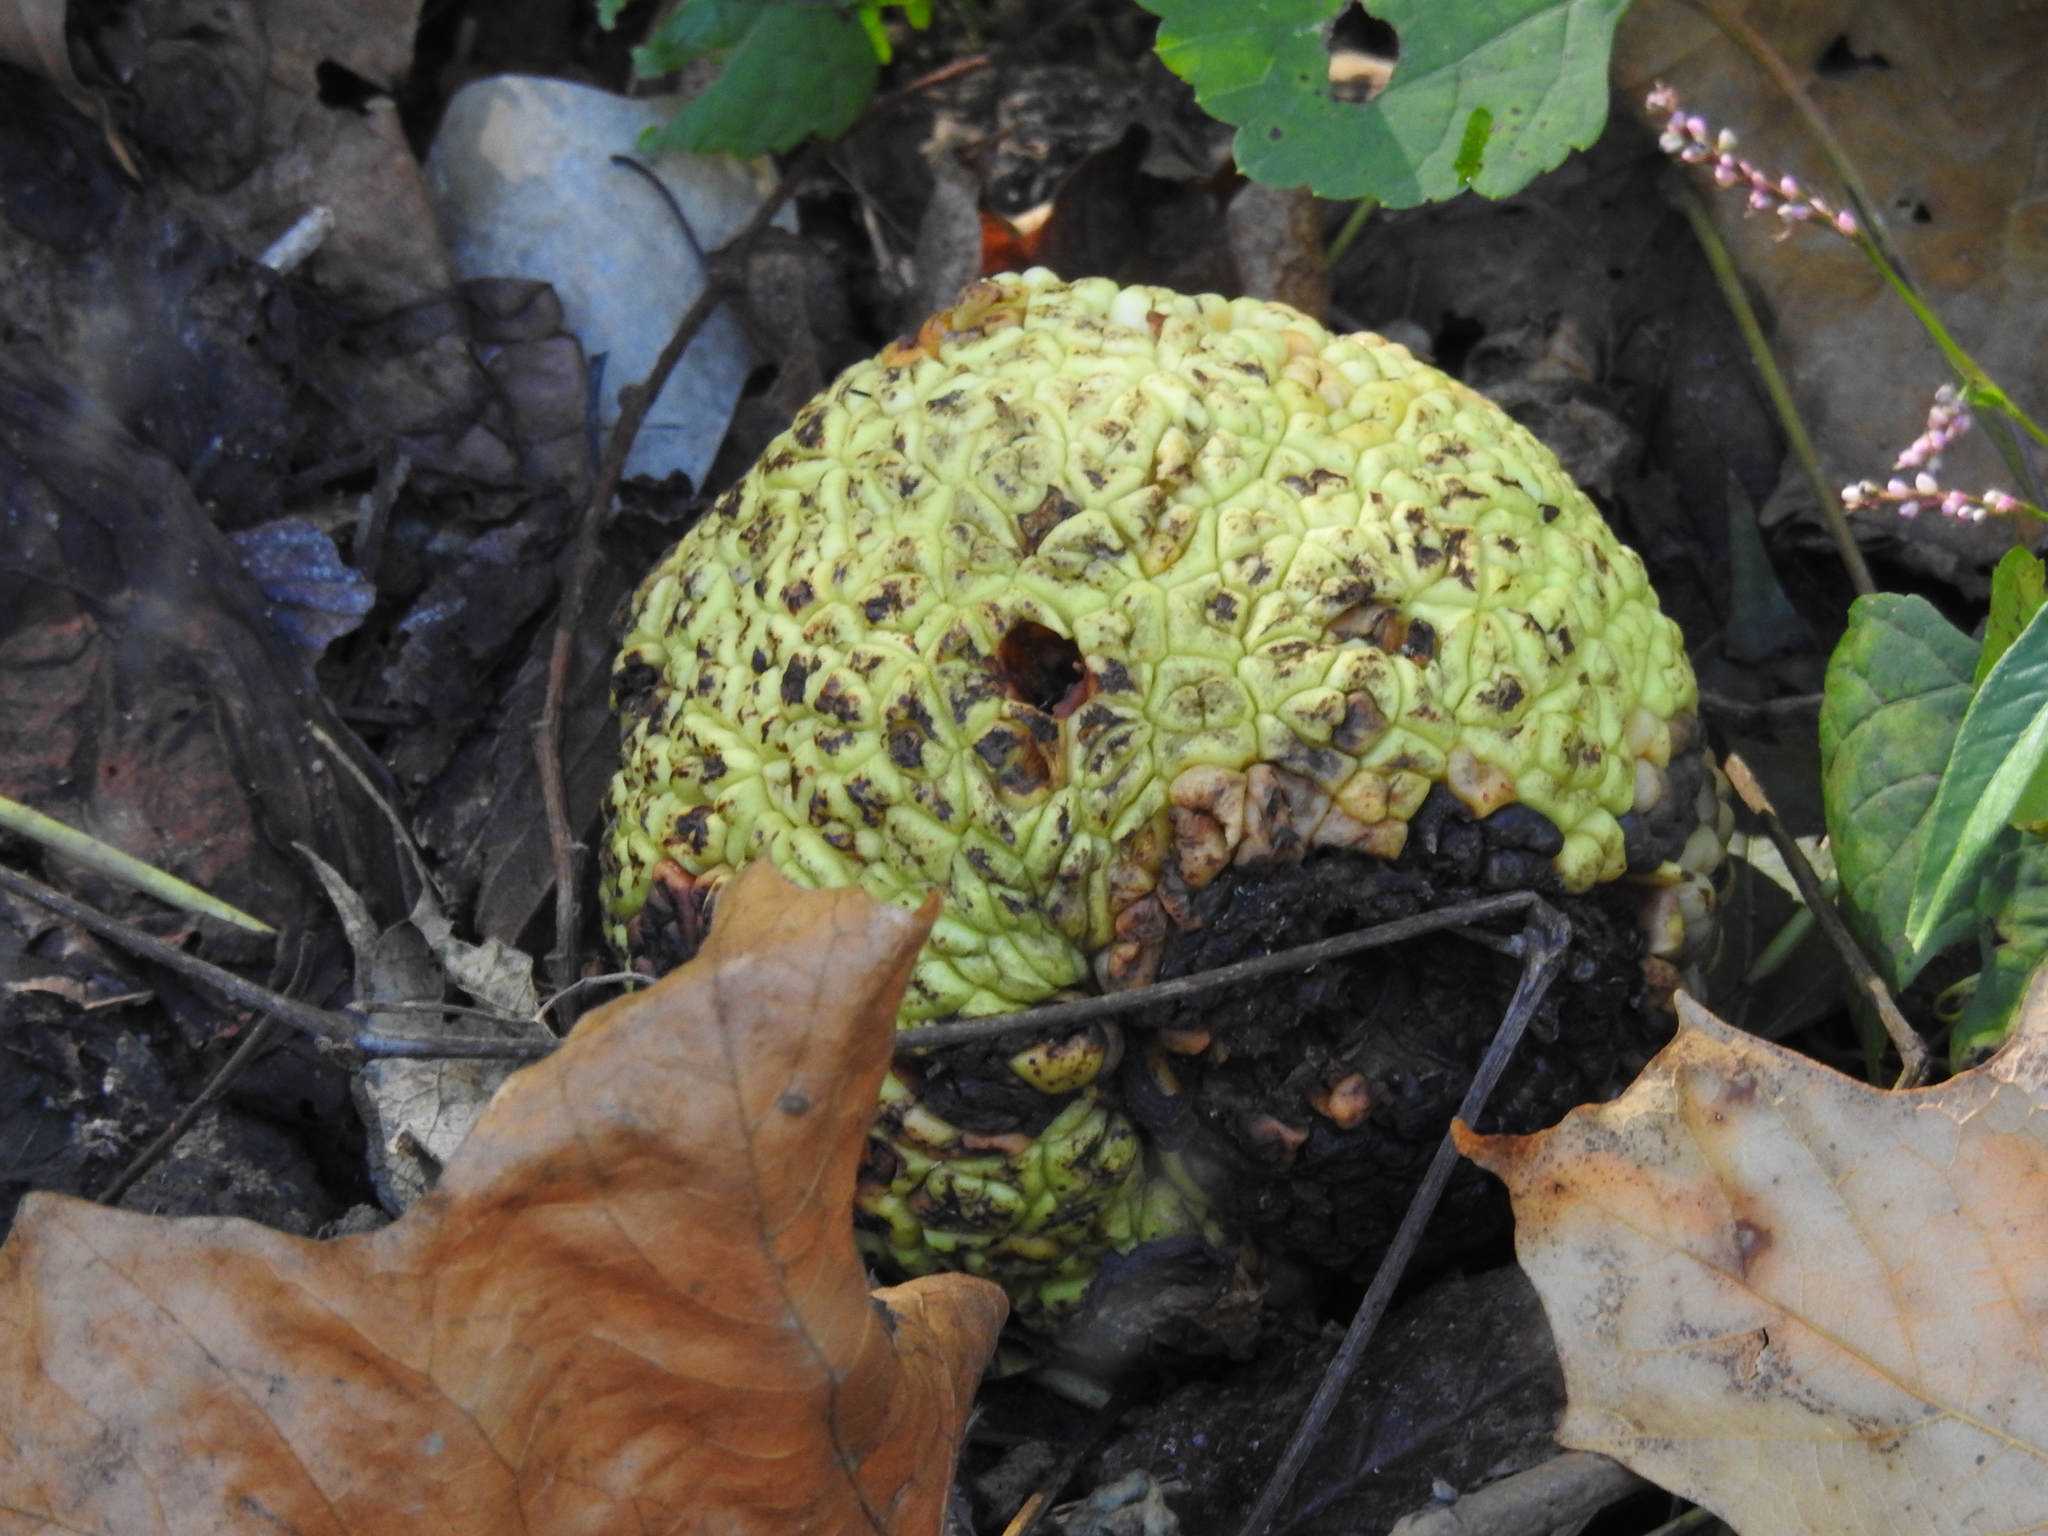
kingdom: Plantae
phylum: Tracheophyta
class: Magnoliopsida
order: Rosales
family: Moraceae
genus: Maclura
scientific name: Maclura pomifera
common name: Osage-orange
